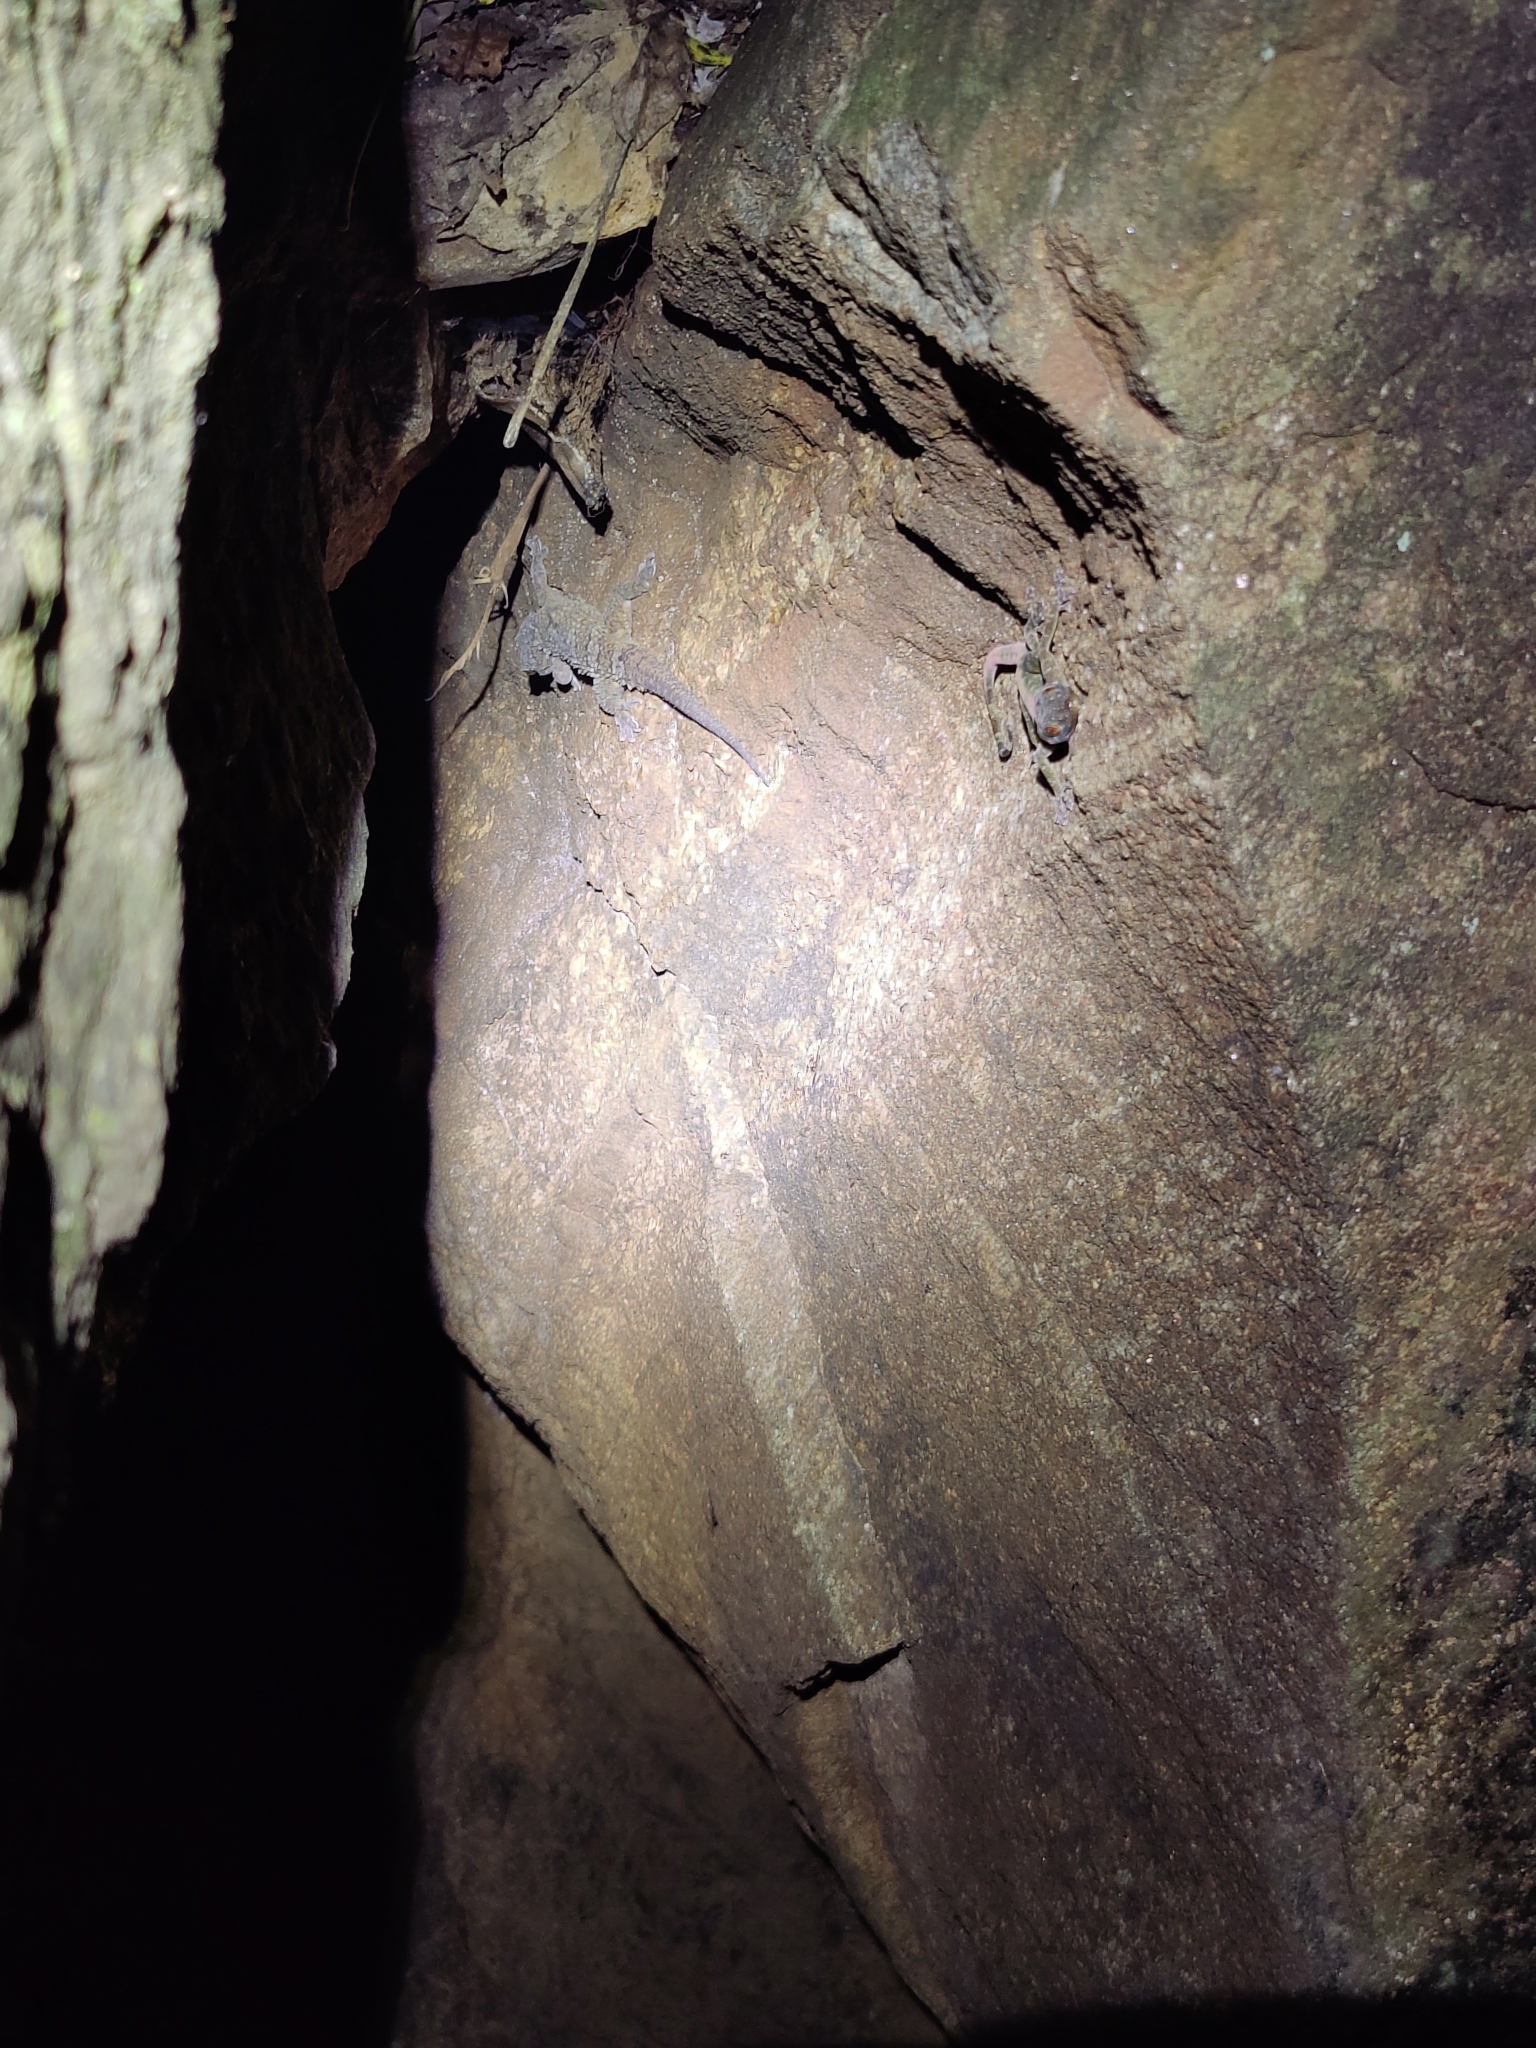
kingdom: Animalia
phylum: Chordata
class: Squamata
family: Gekkonidae
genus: Calodactylodes
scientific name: Calodactylodes aureus
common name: Indian golden gecko
